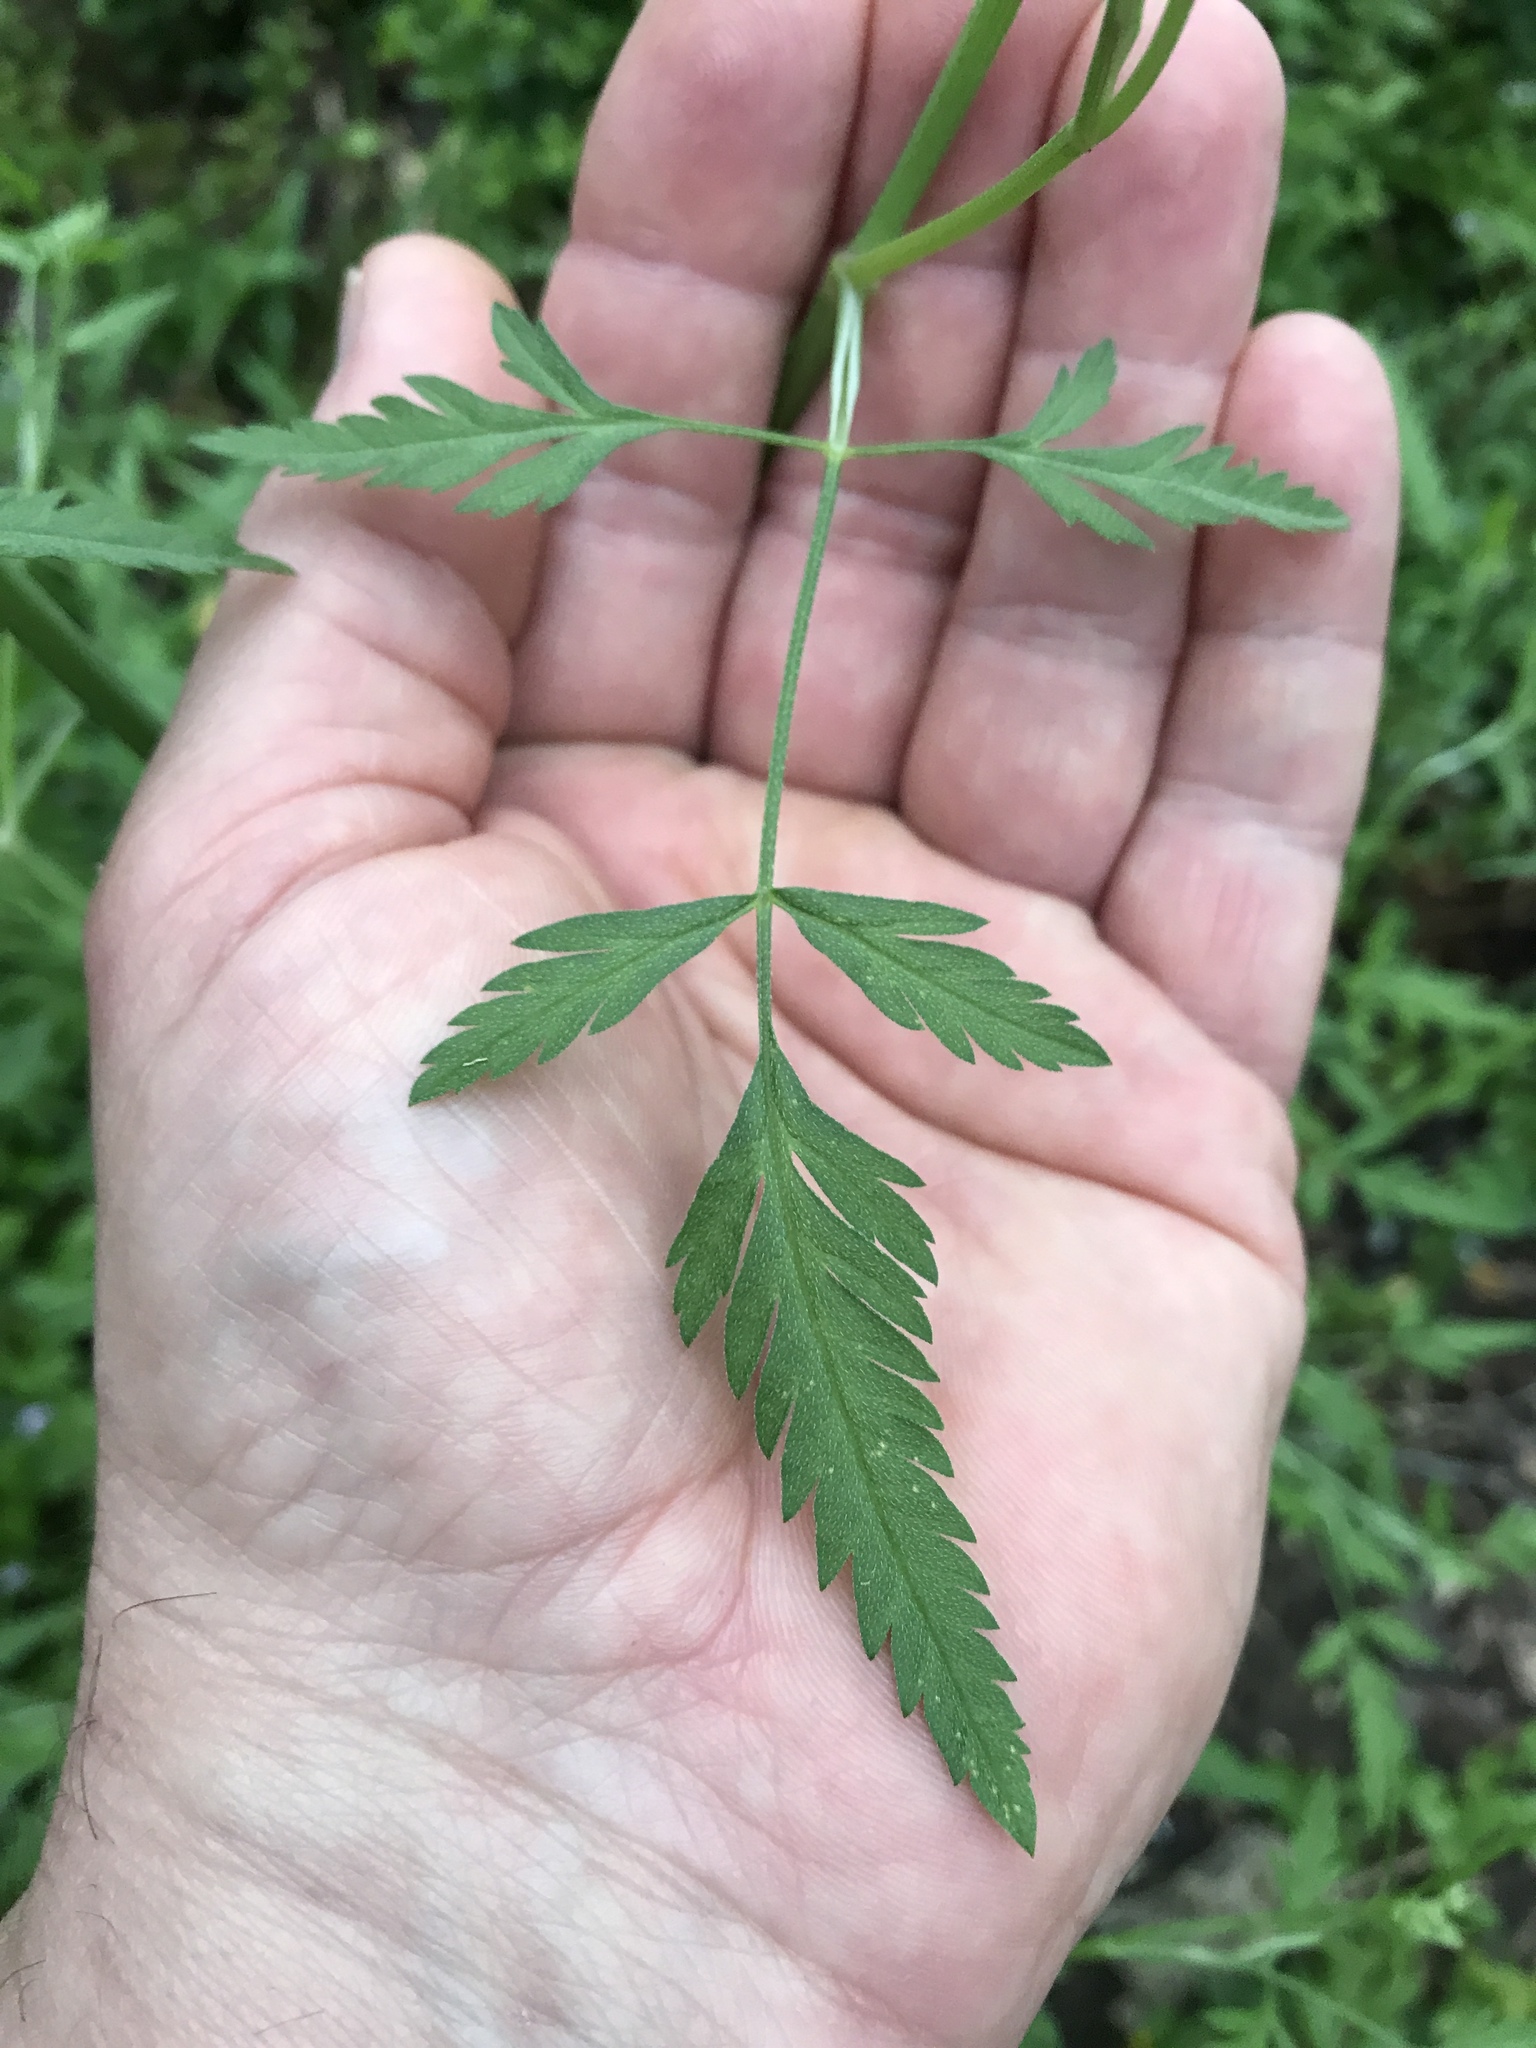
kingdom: Plantae
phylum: Tracheophyta
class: Magnoliopsida
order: Apiales
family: Apiaceae
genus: Torilis
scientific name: Torilis arvensis
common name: Spreading hedge-parsley
